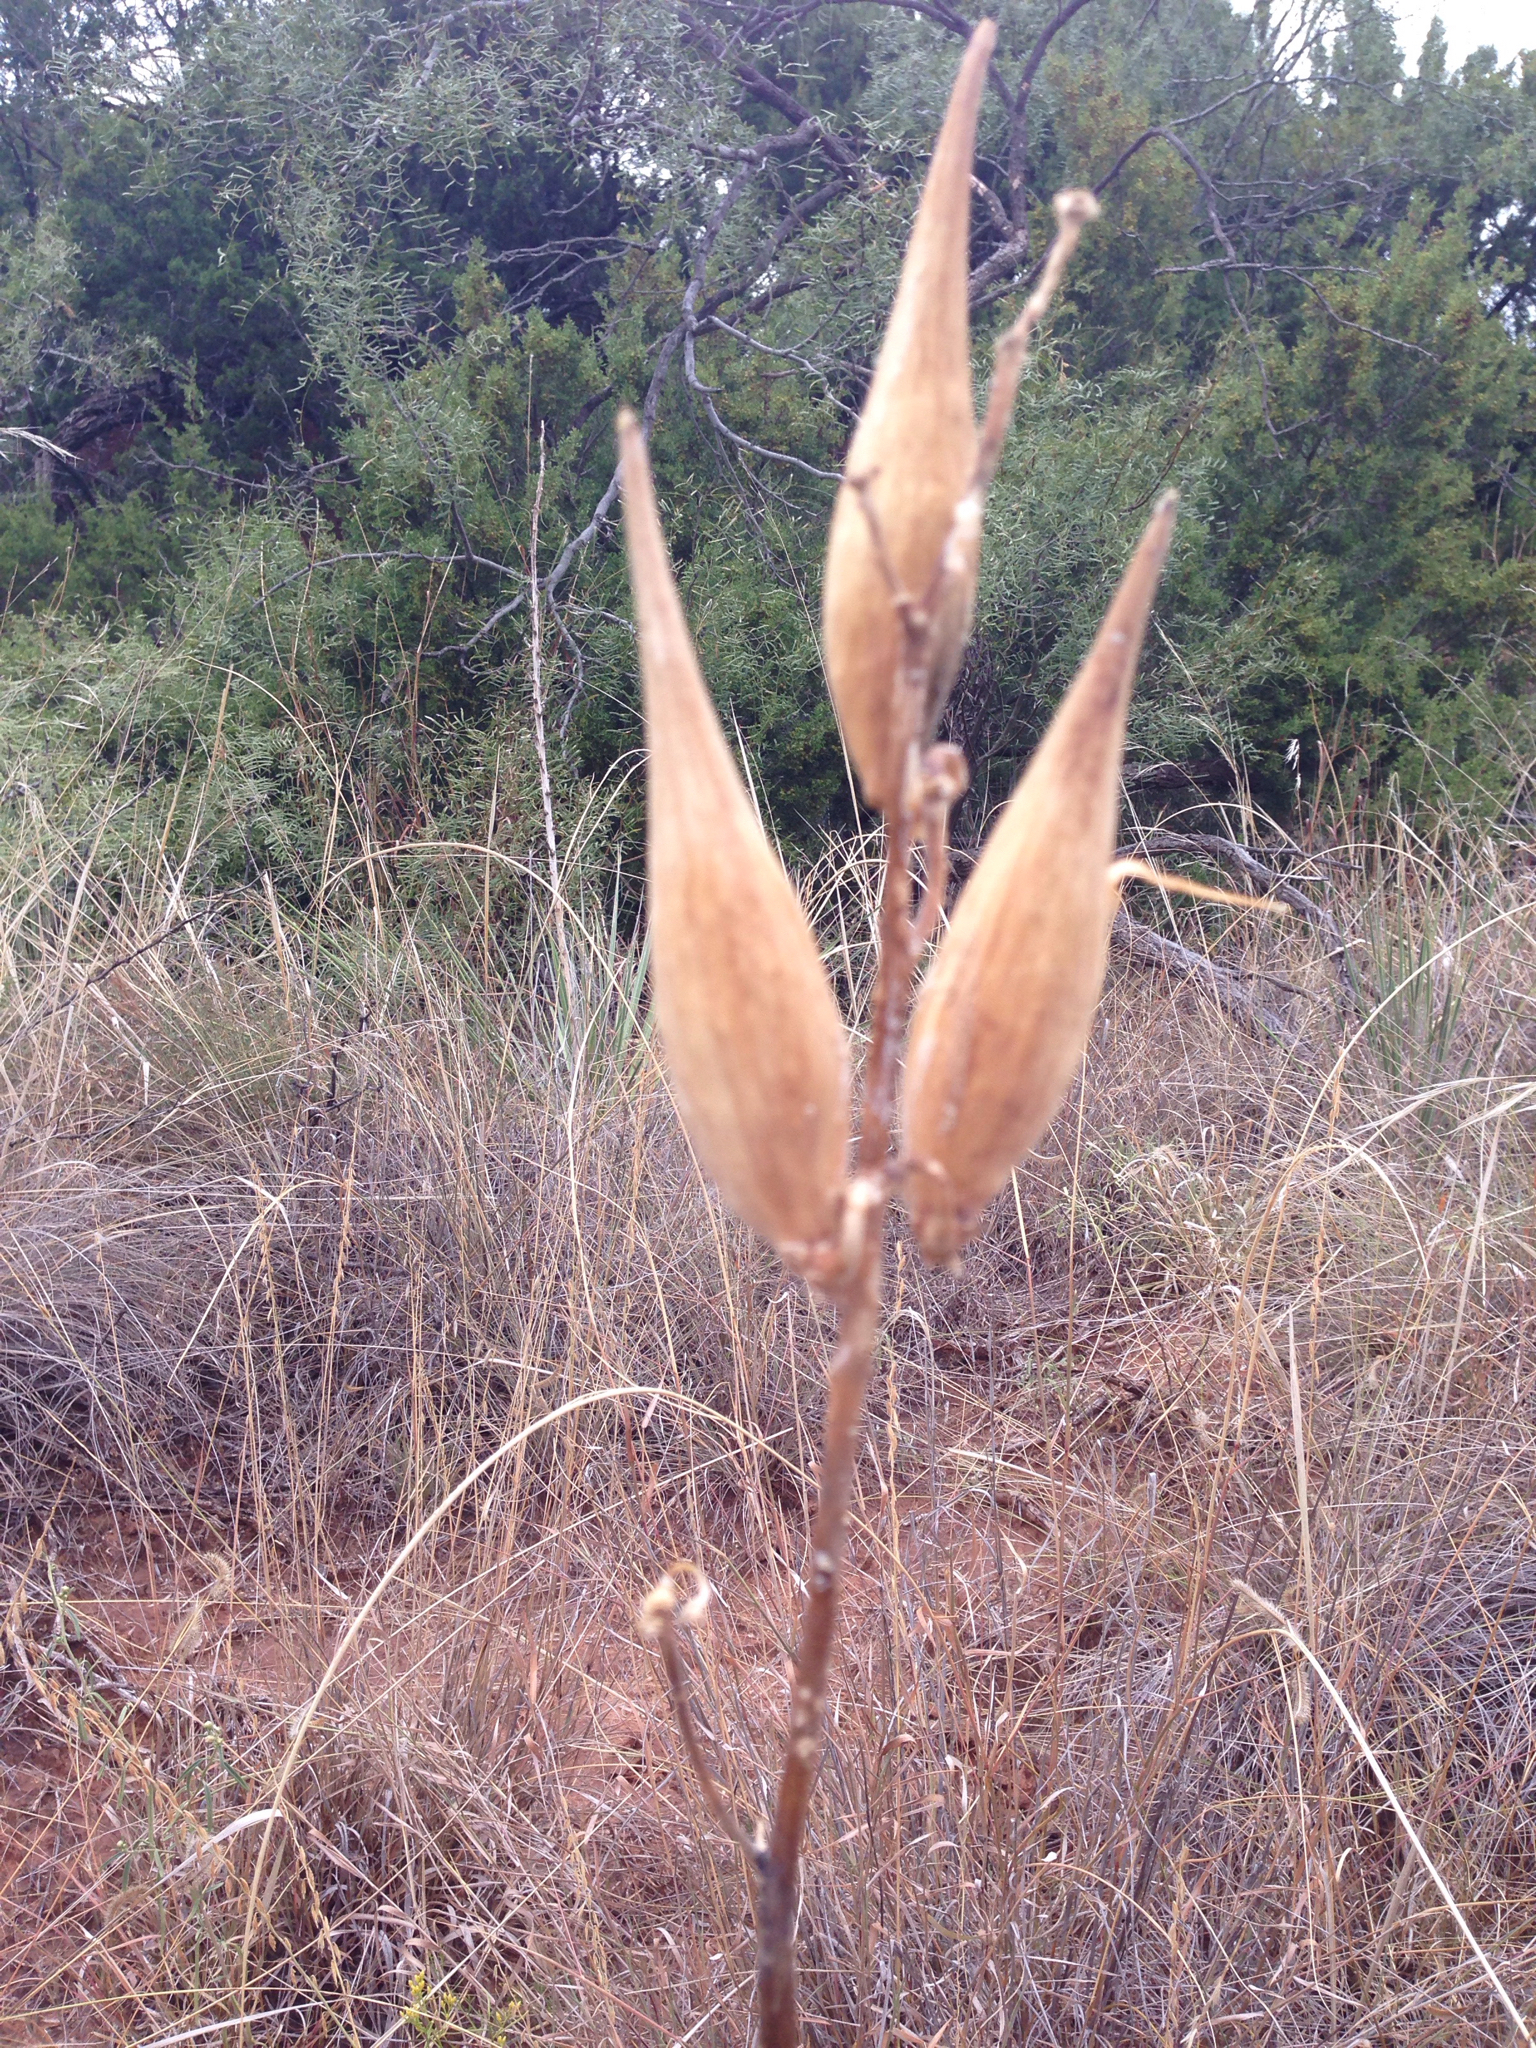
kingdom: Plantae
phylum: Tracheophyta
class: Magnoliopsida
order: Gentianales
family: Apocynaceae
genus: Asclepias
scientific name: Asclepias engelmanniana
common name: Engelmann's milkweed
